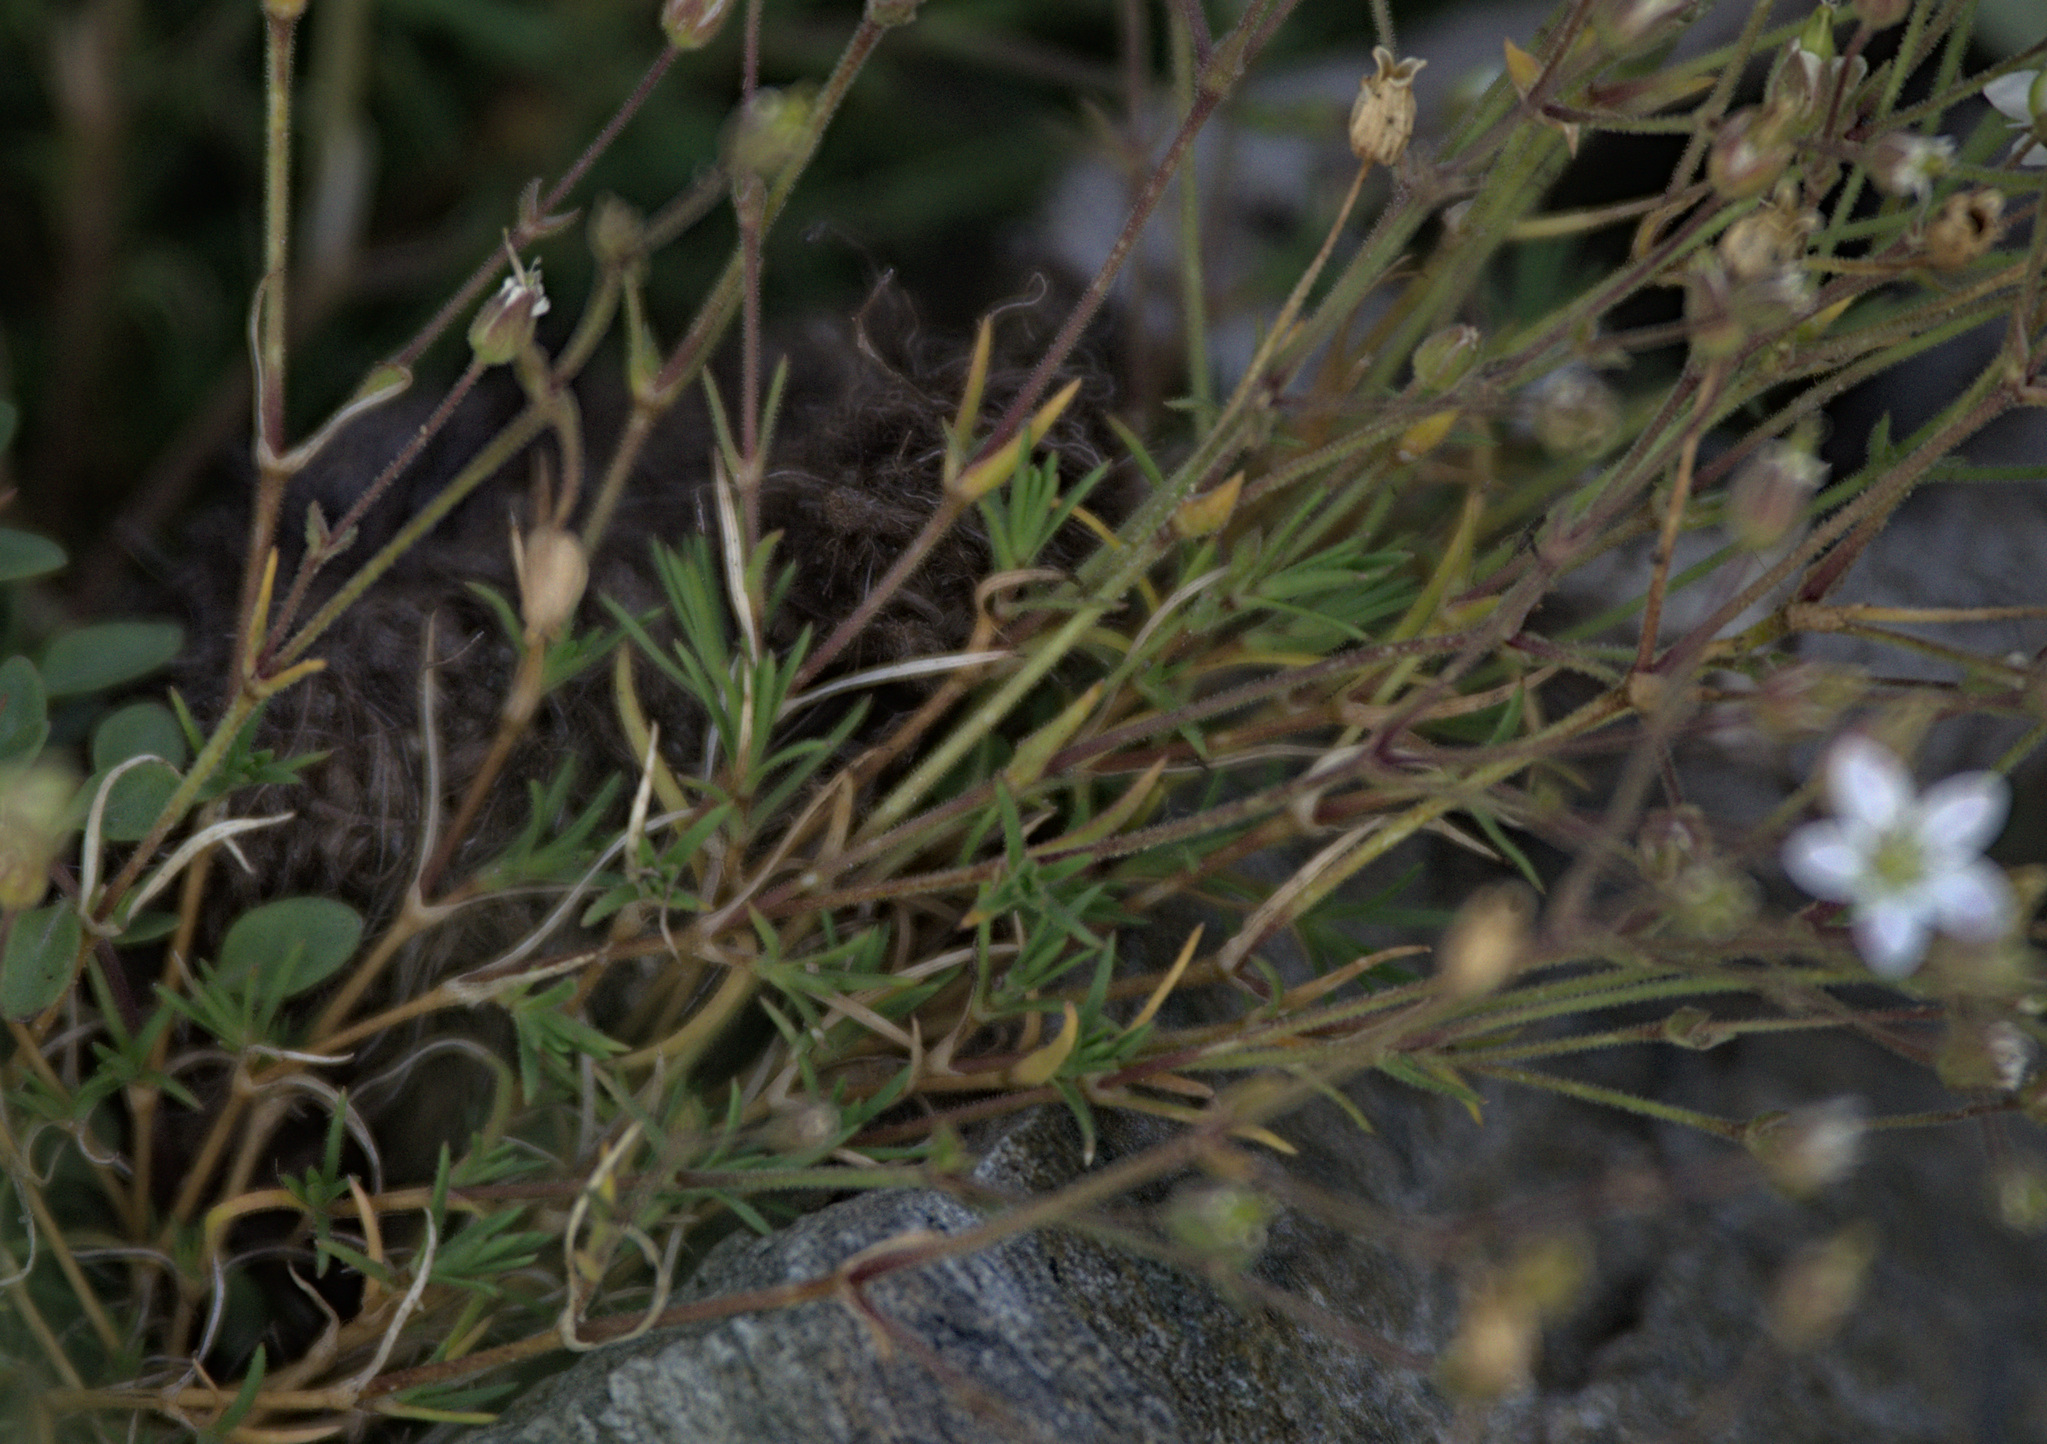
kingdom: Plantae
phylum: Tracheophyta
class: Magnoliopsida
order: Caryophyllales
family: Caryophyllaceae
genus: Sabulina
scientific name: Sabulina verna
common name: Spring sandwort
